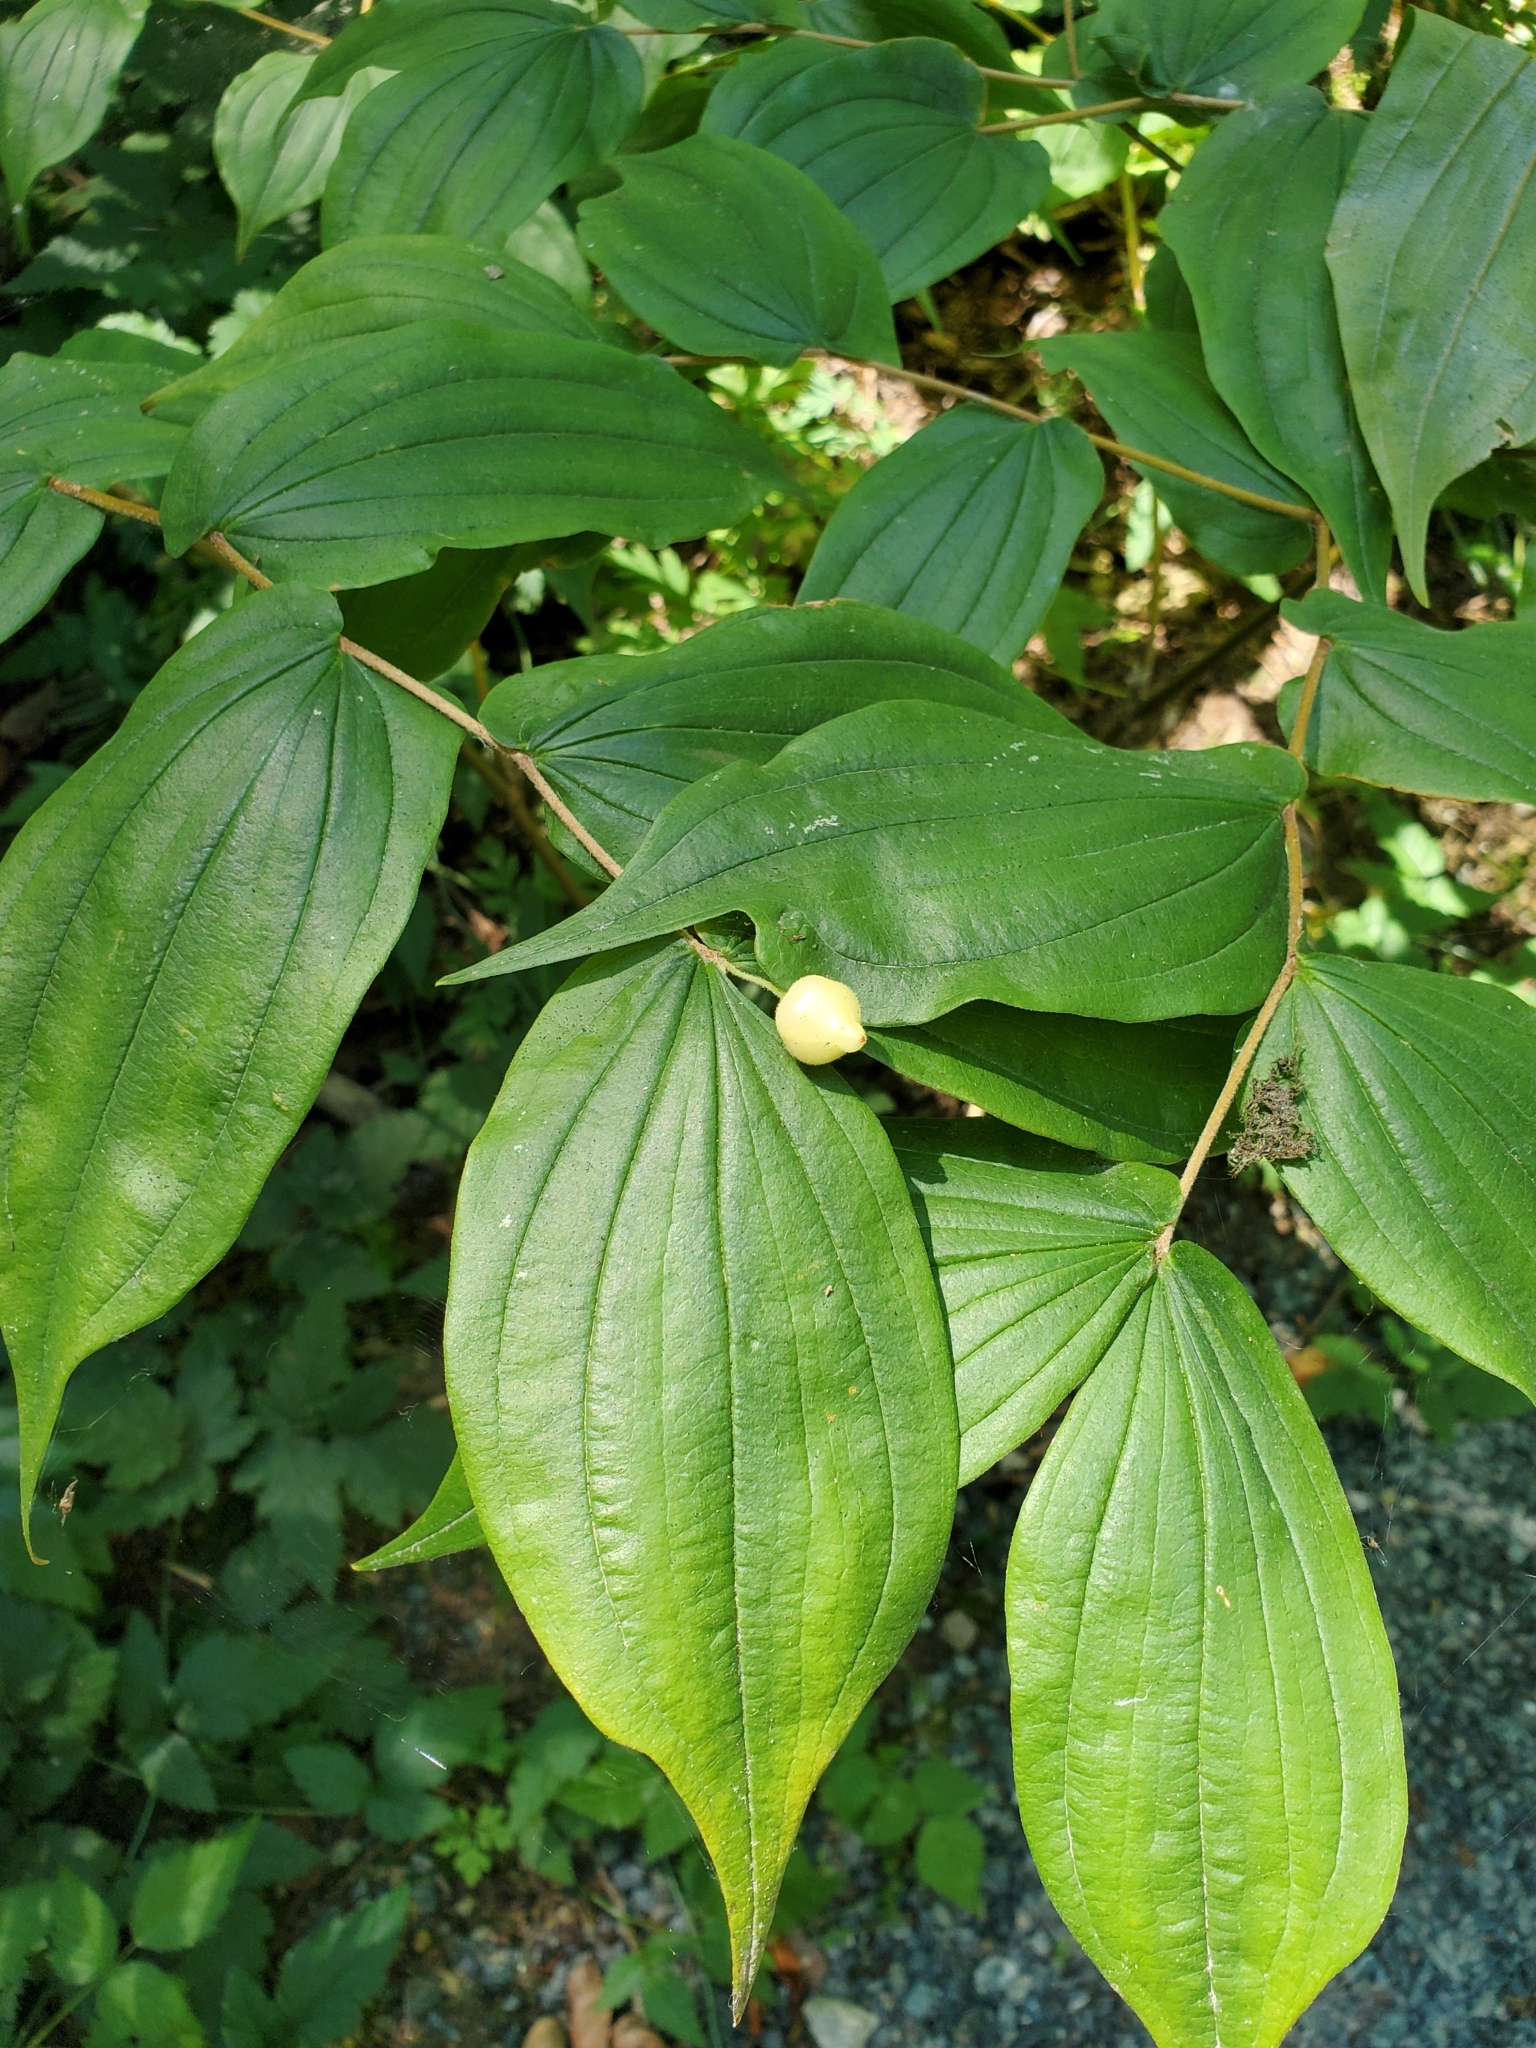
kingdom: Plantae
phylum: Tracheophyta
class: Liliopsida
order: Liliales
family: Liliaceae
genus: Prosartes
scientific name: Prosartes hookeri
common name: Fairy-bells
